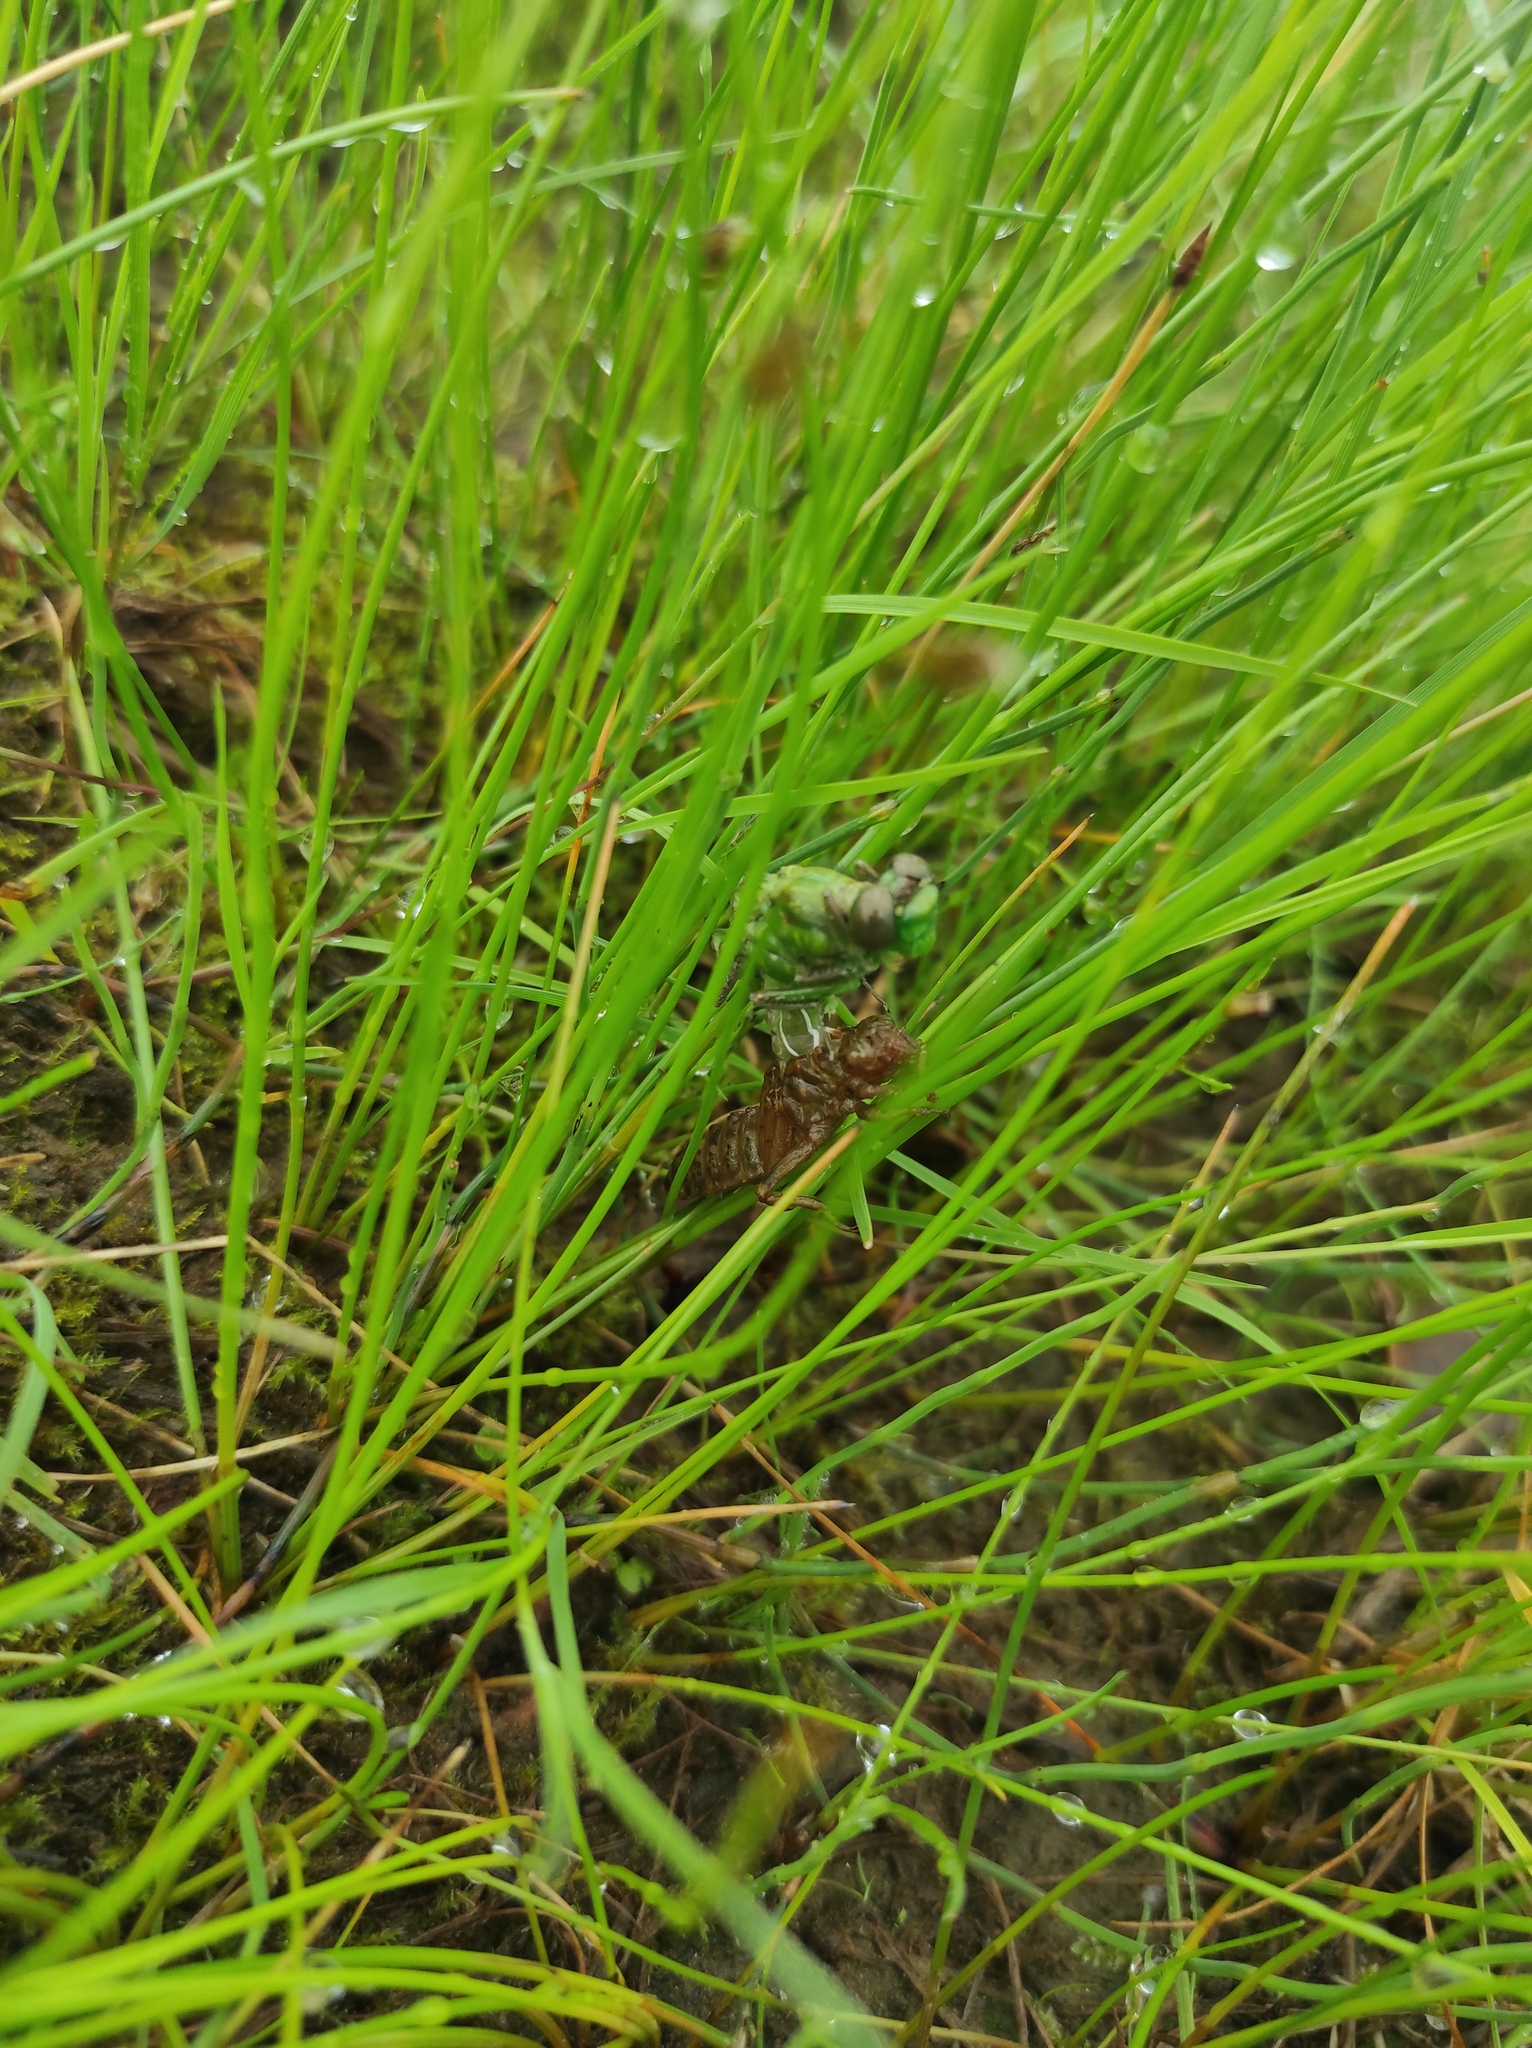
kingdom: Animalia
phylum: Arthropoda
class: Insecta
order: Odonata
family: Gomphidae
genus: Ophiogomphus
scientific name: Ophiogomphus obscurus
